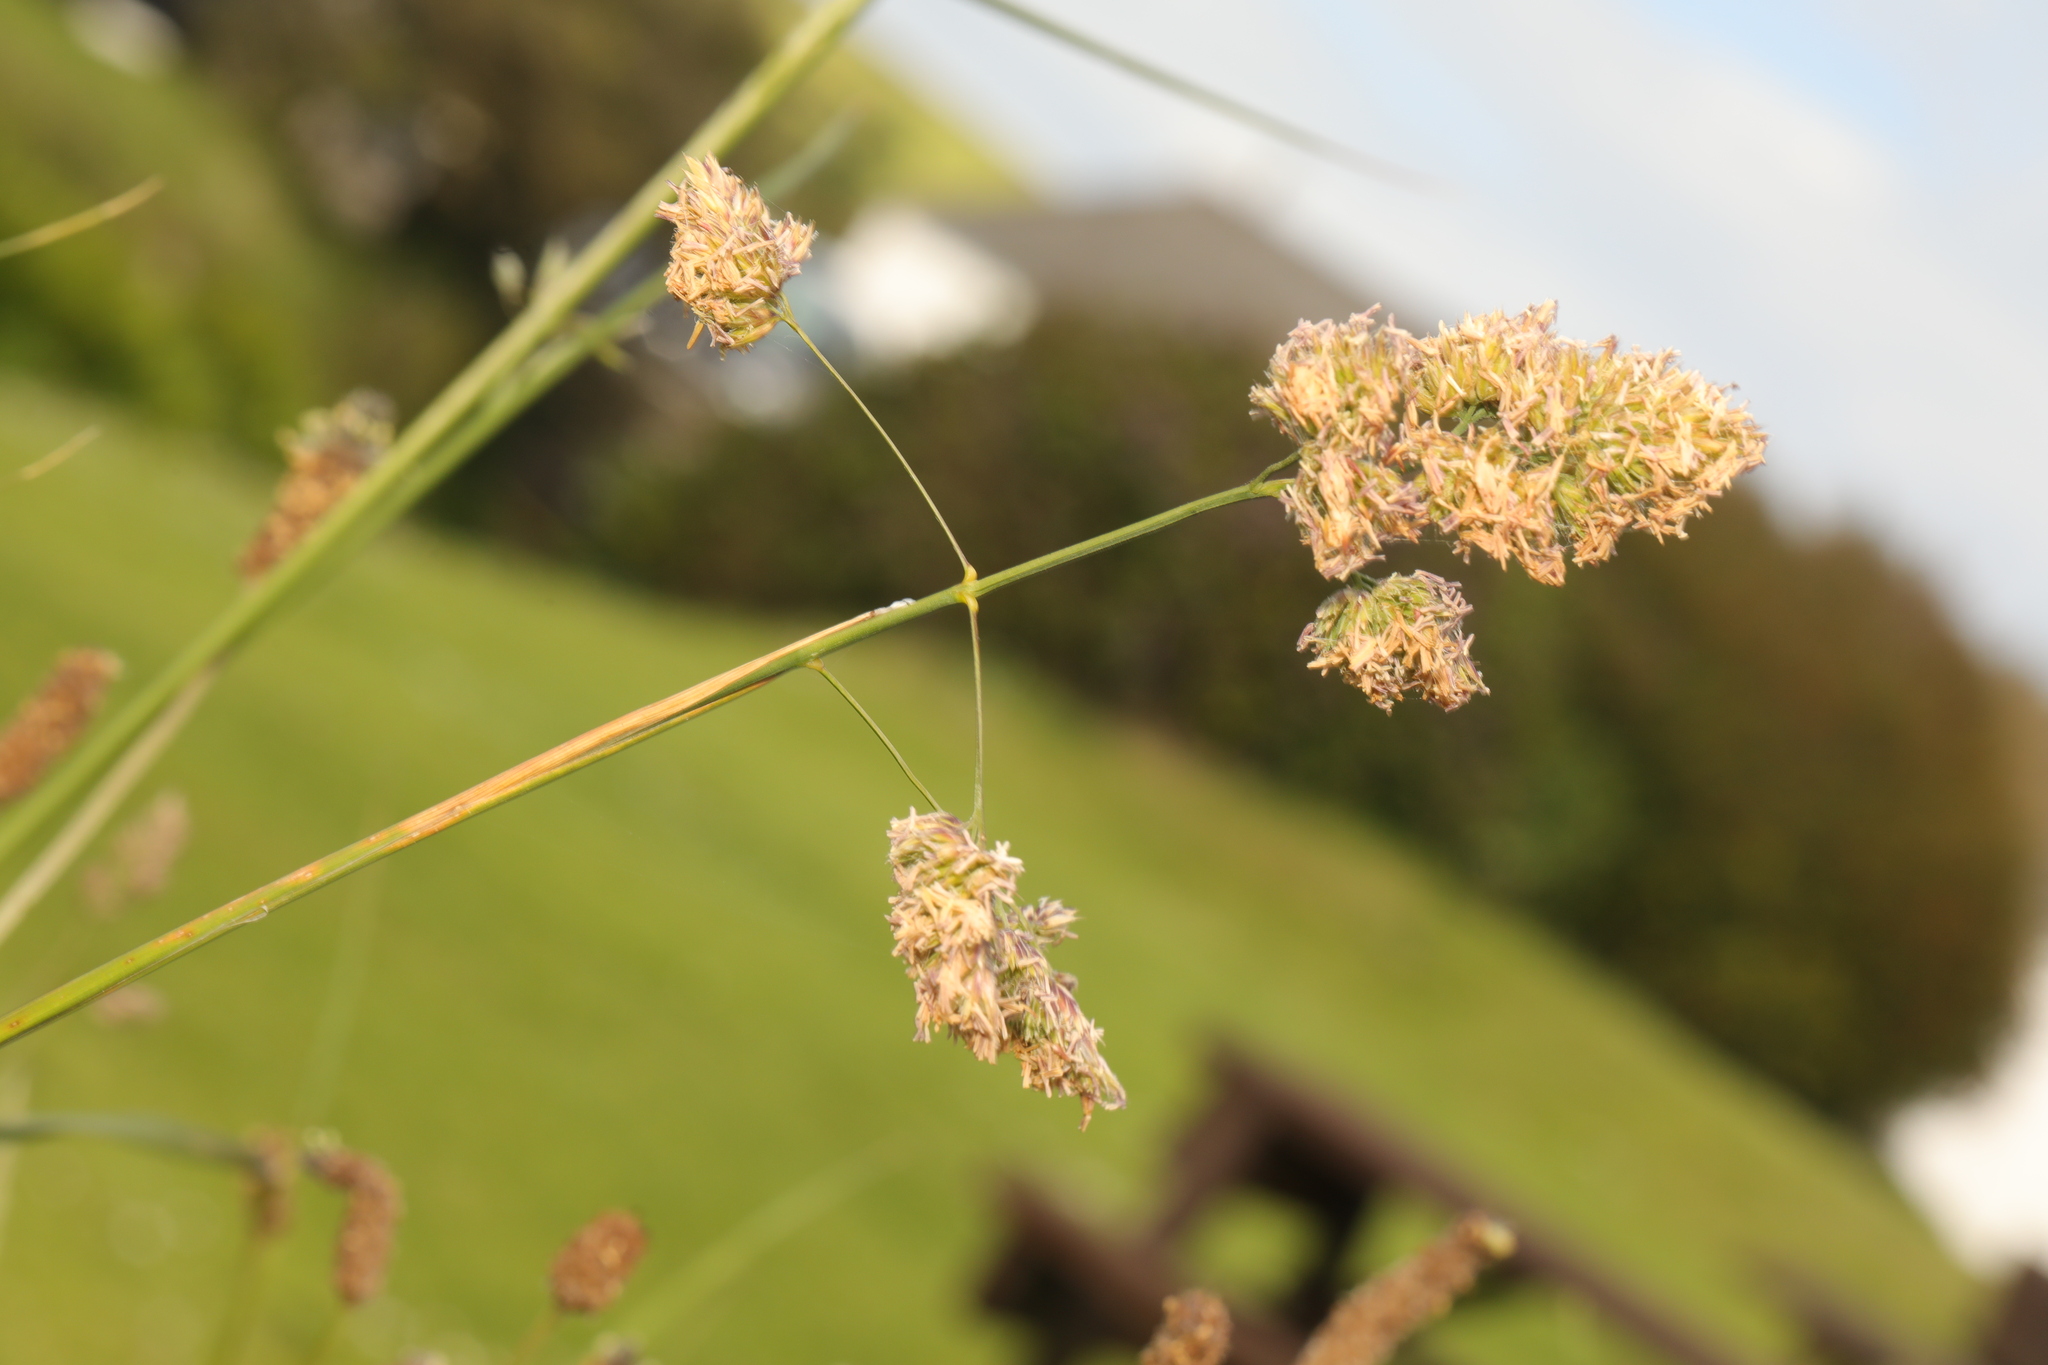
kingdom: Plantae
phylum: Tracheophyta
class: Liliopsida
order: Poales
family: Poaceae
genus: Dactylis
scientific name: Dactylis glomerata
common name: Orchardgrass
